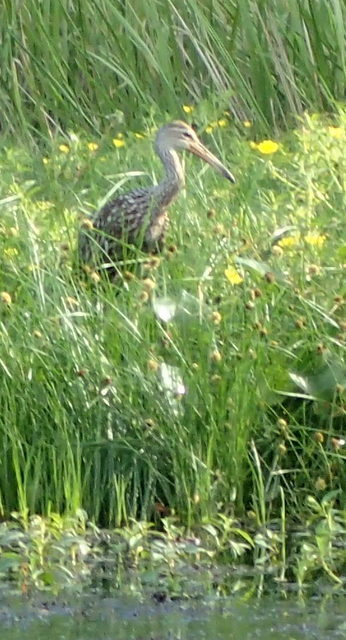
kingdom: Animalia
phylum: Chordata
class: Aves
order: Gruiformes
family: Aramidae
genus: Aramus
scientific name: Aramus guarauna
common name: Limpkin
